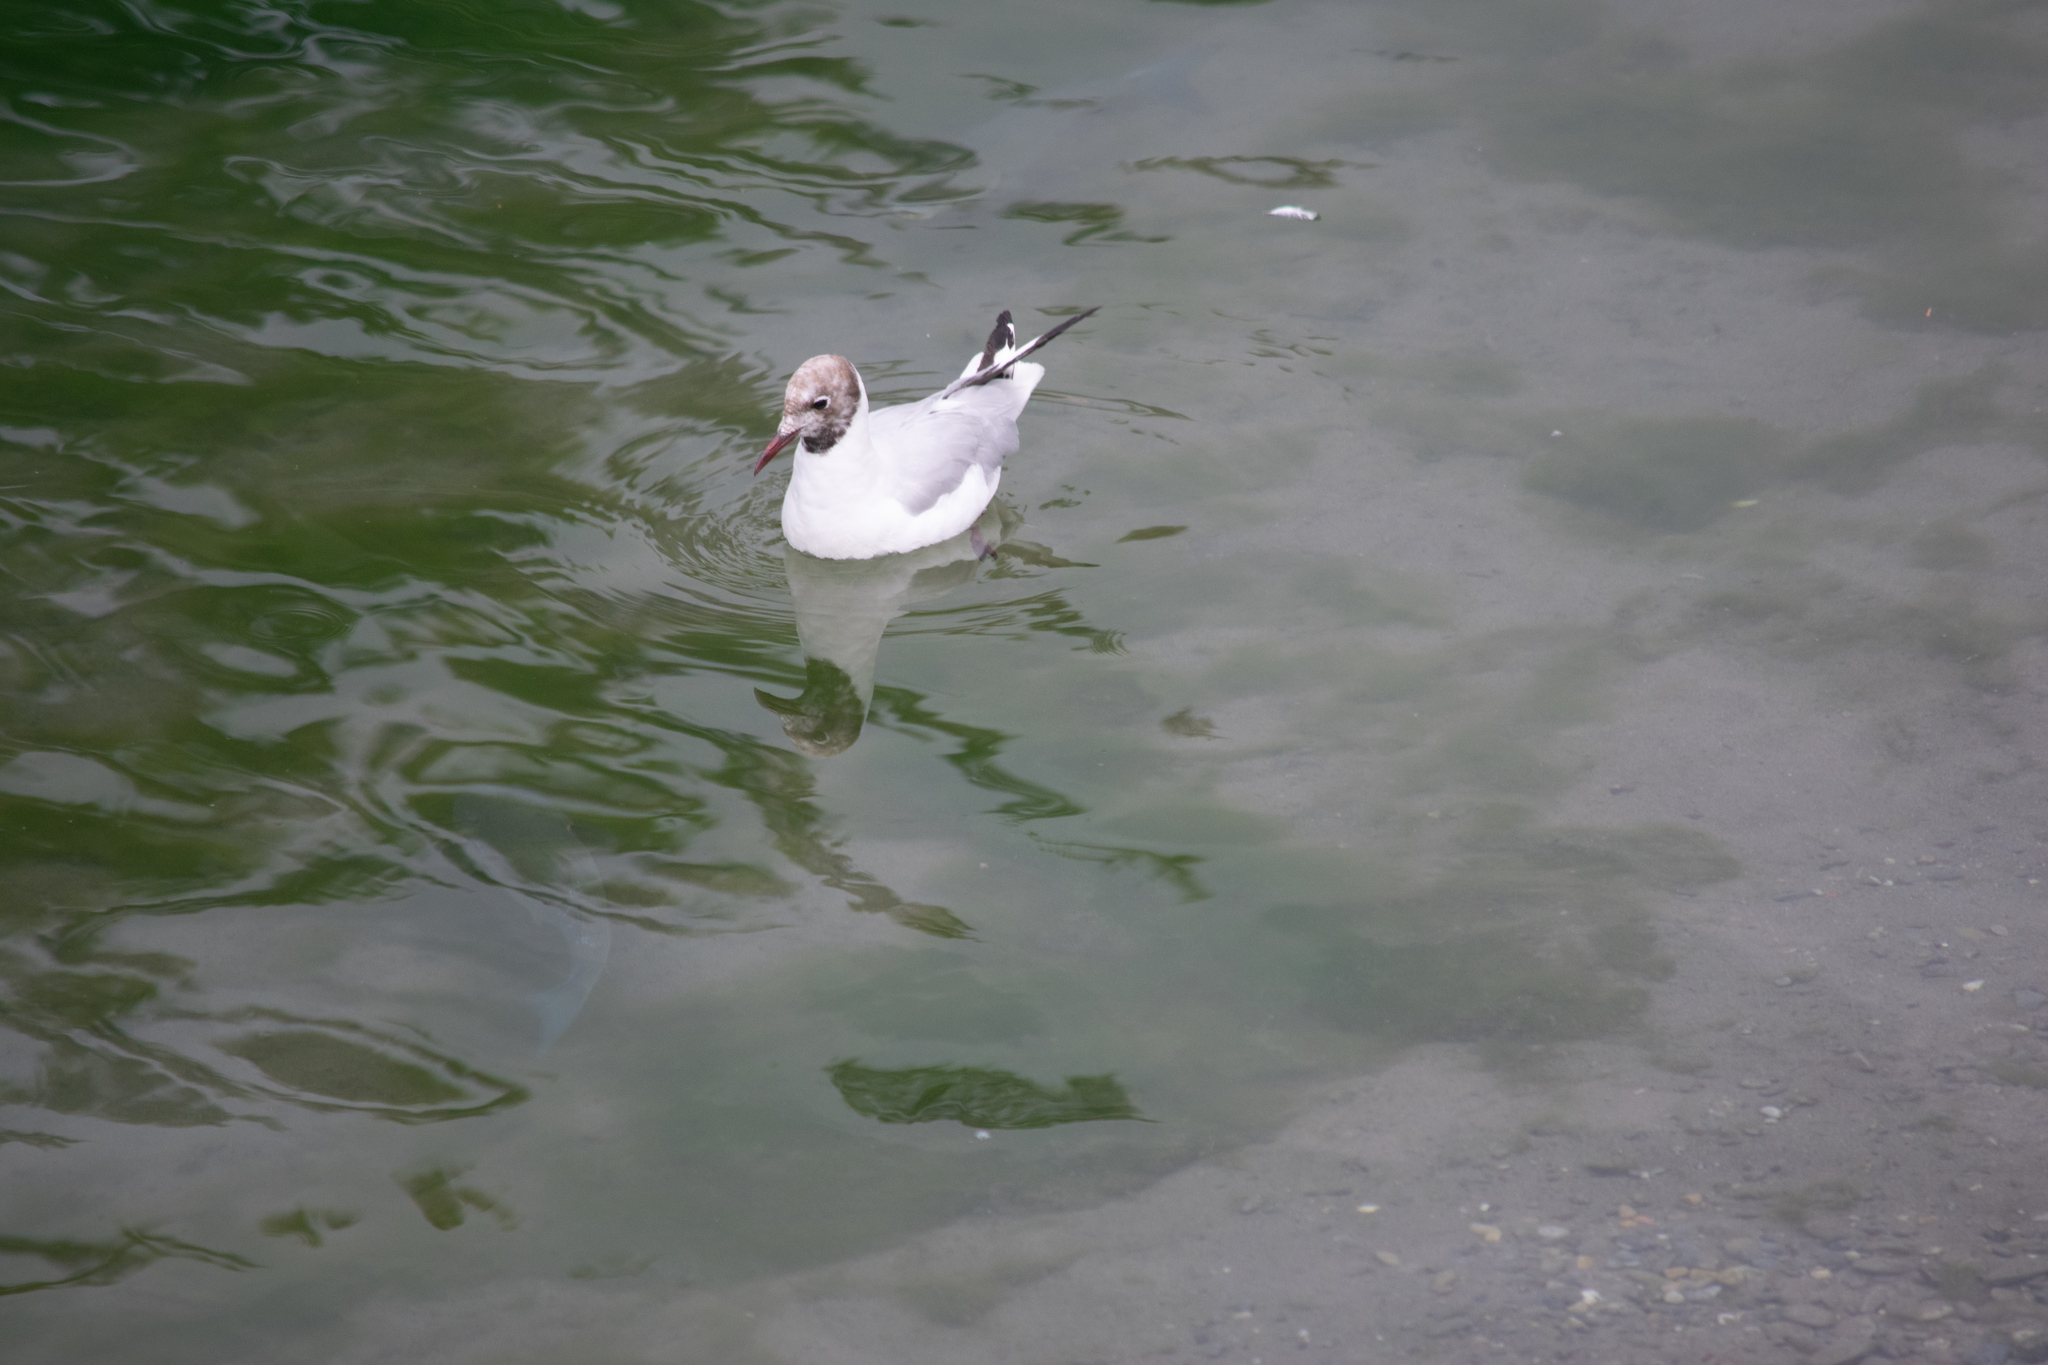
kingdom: Animalia
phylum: Chordata
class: Aves
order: Charadriiformes
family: Laridae
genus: Chroicocephalus
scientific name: Chroicocephalus ridibundus
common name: Black-headed gull
